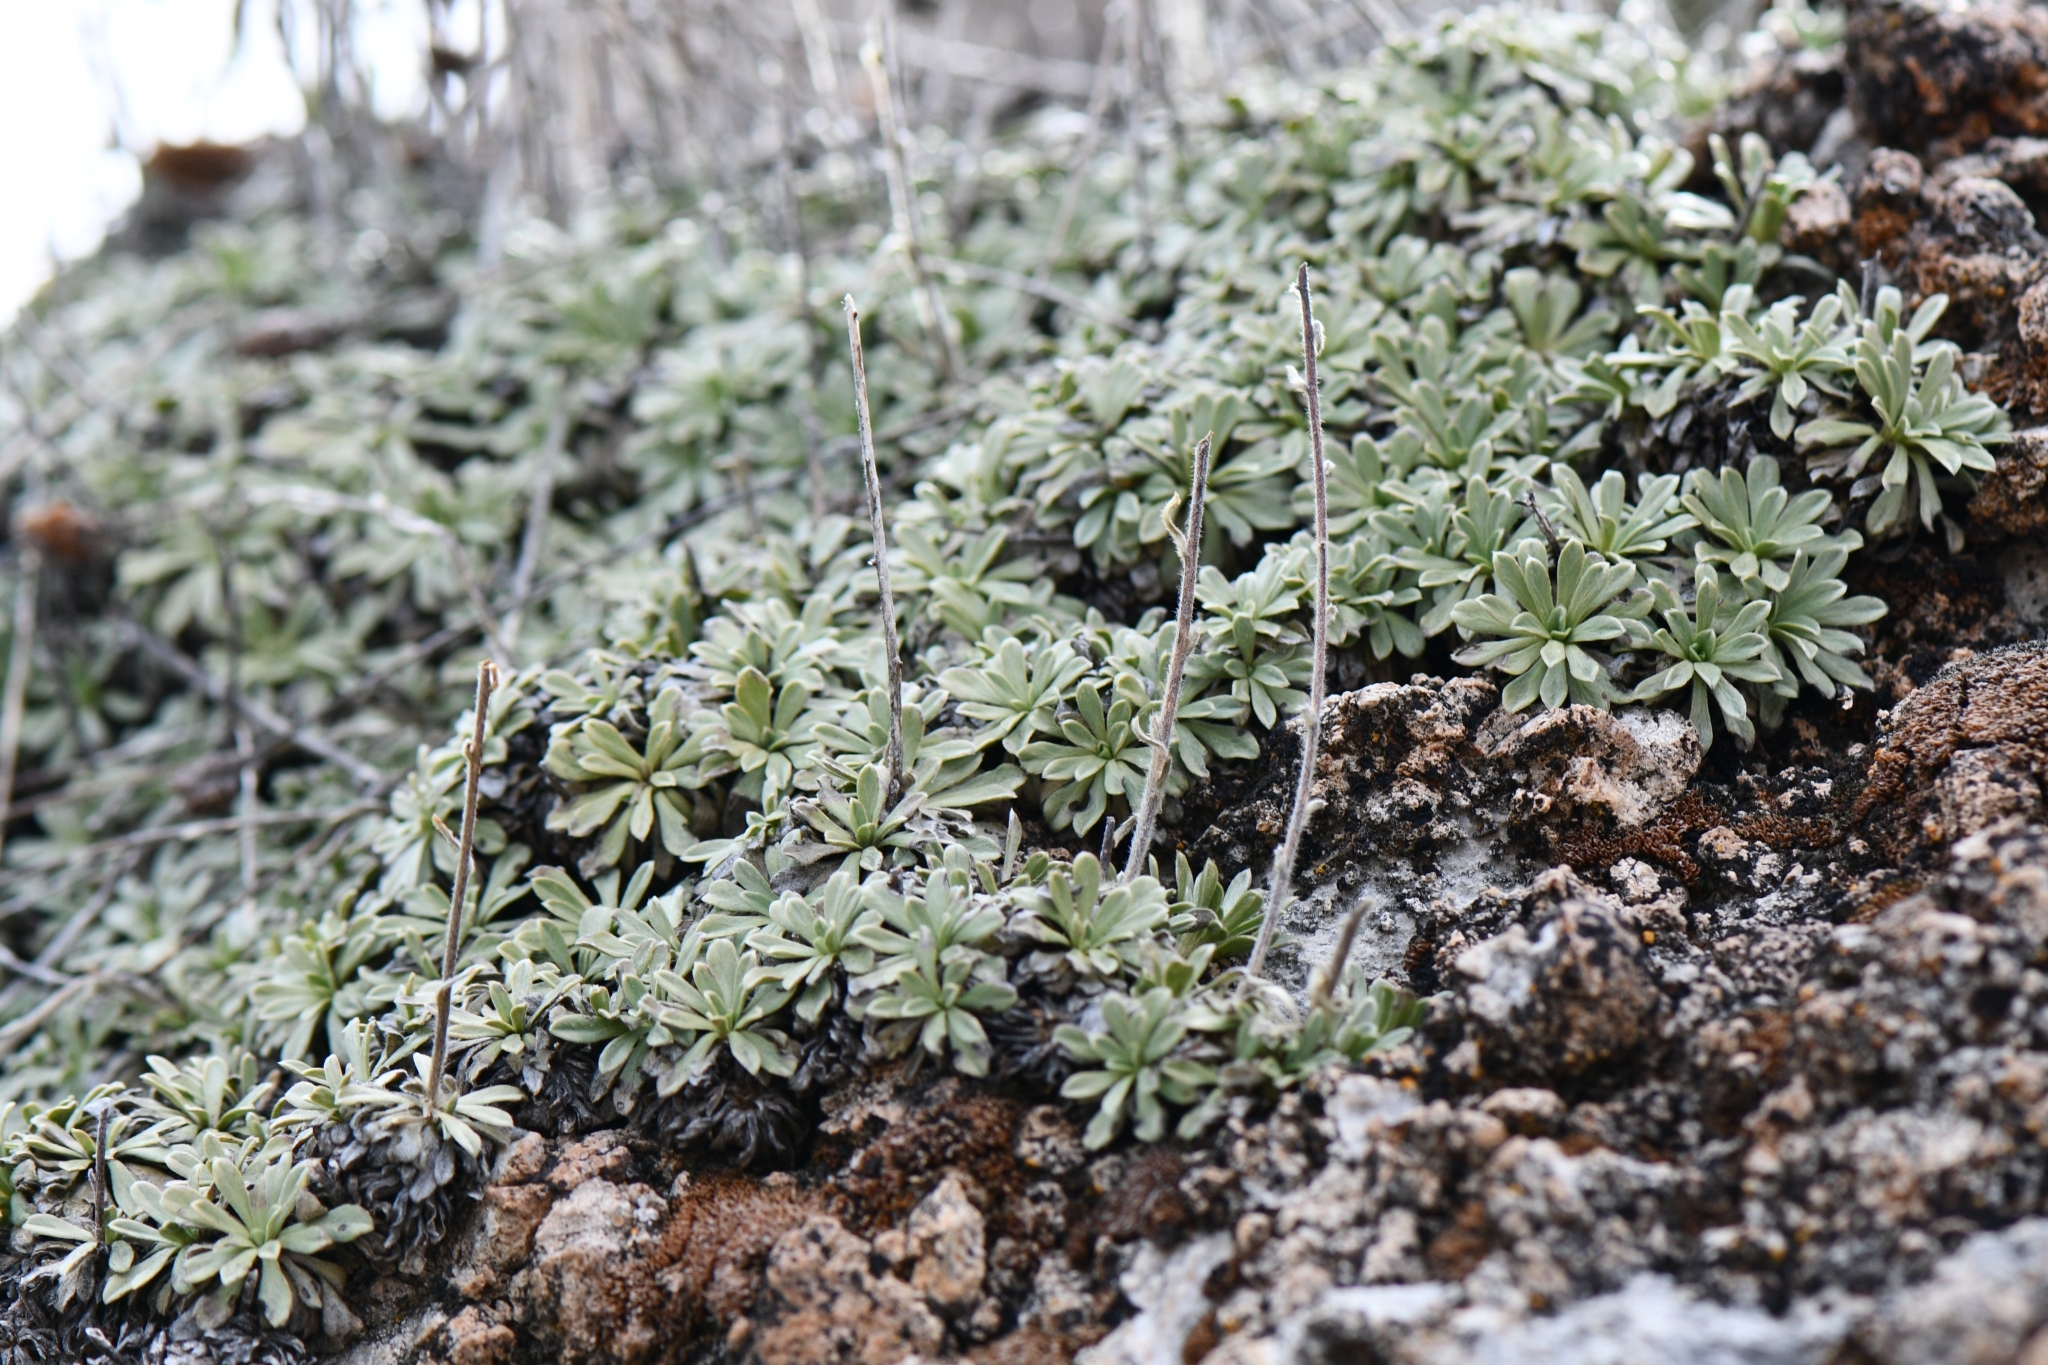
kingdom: Plantae
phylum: Tracheophyta
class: Magnoliopsida
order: Rosales
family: Rosaceae
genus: Petrophytum
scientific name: Petrophytum caespitosum
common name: Mat rockspirea
